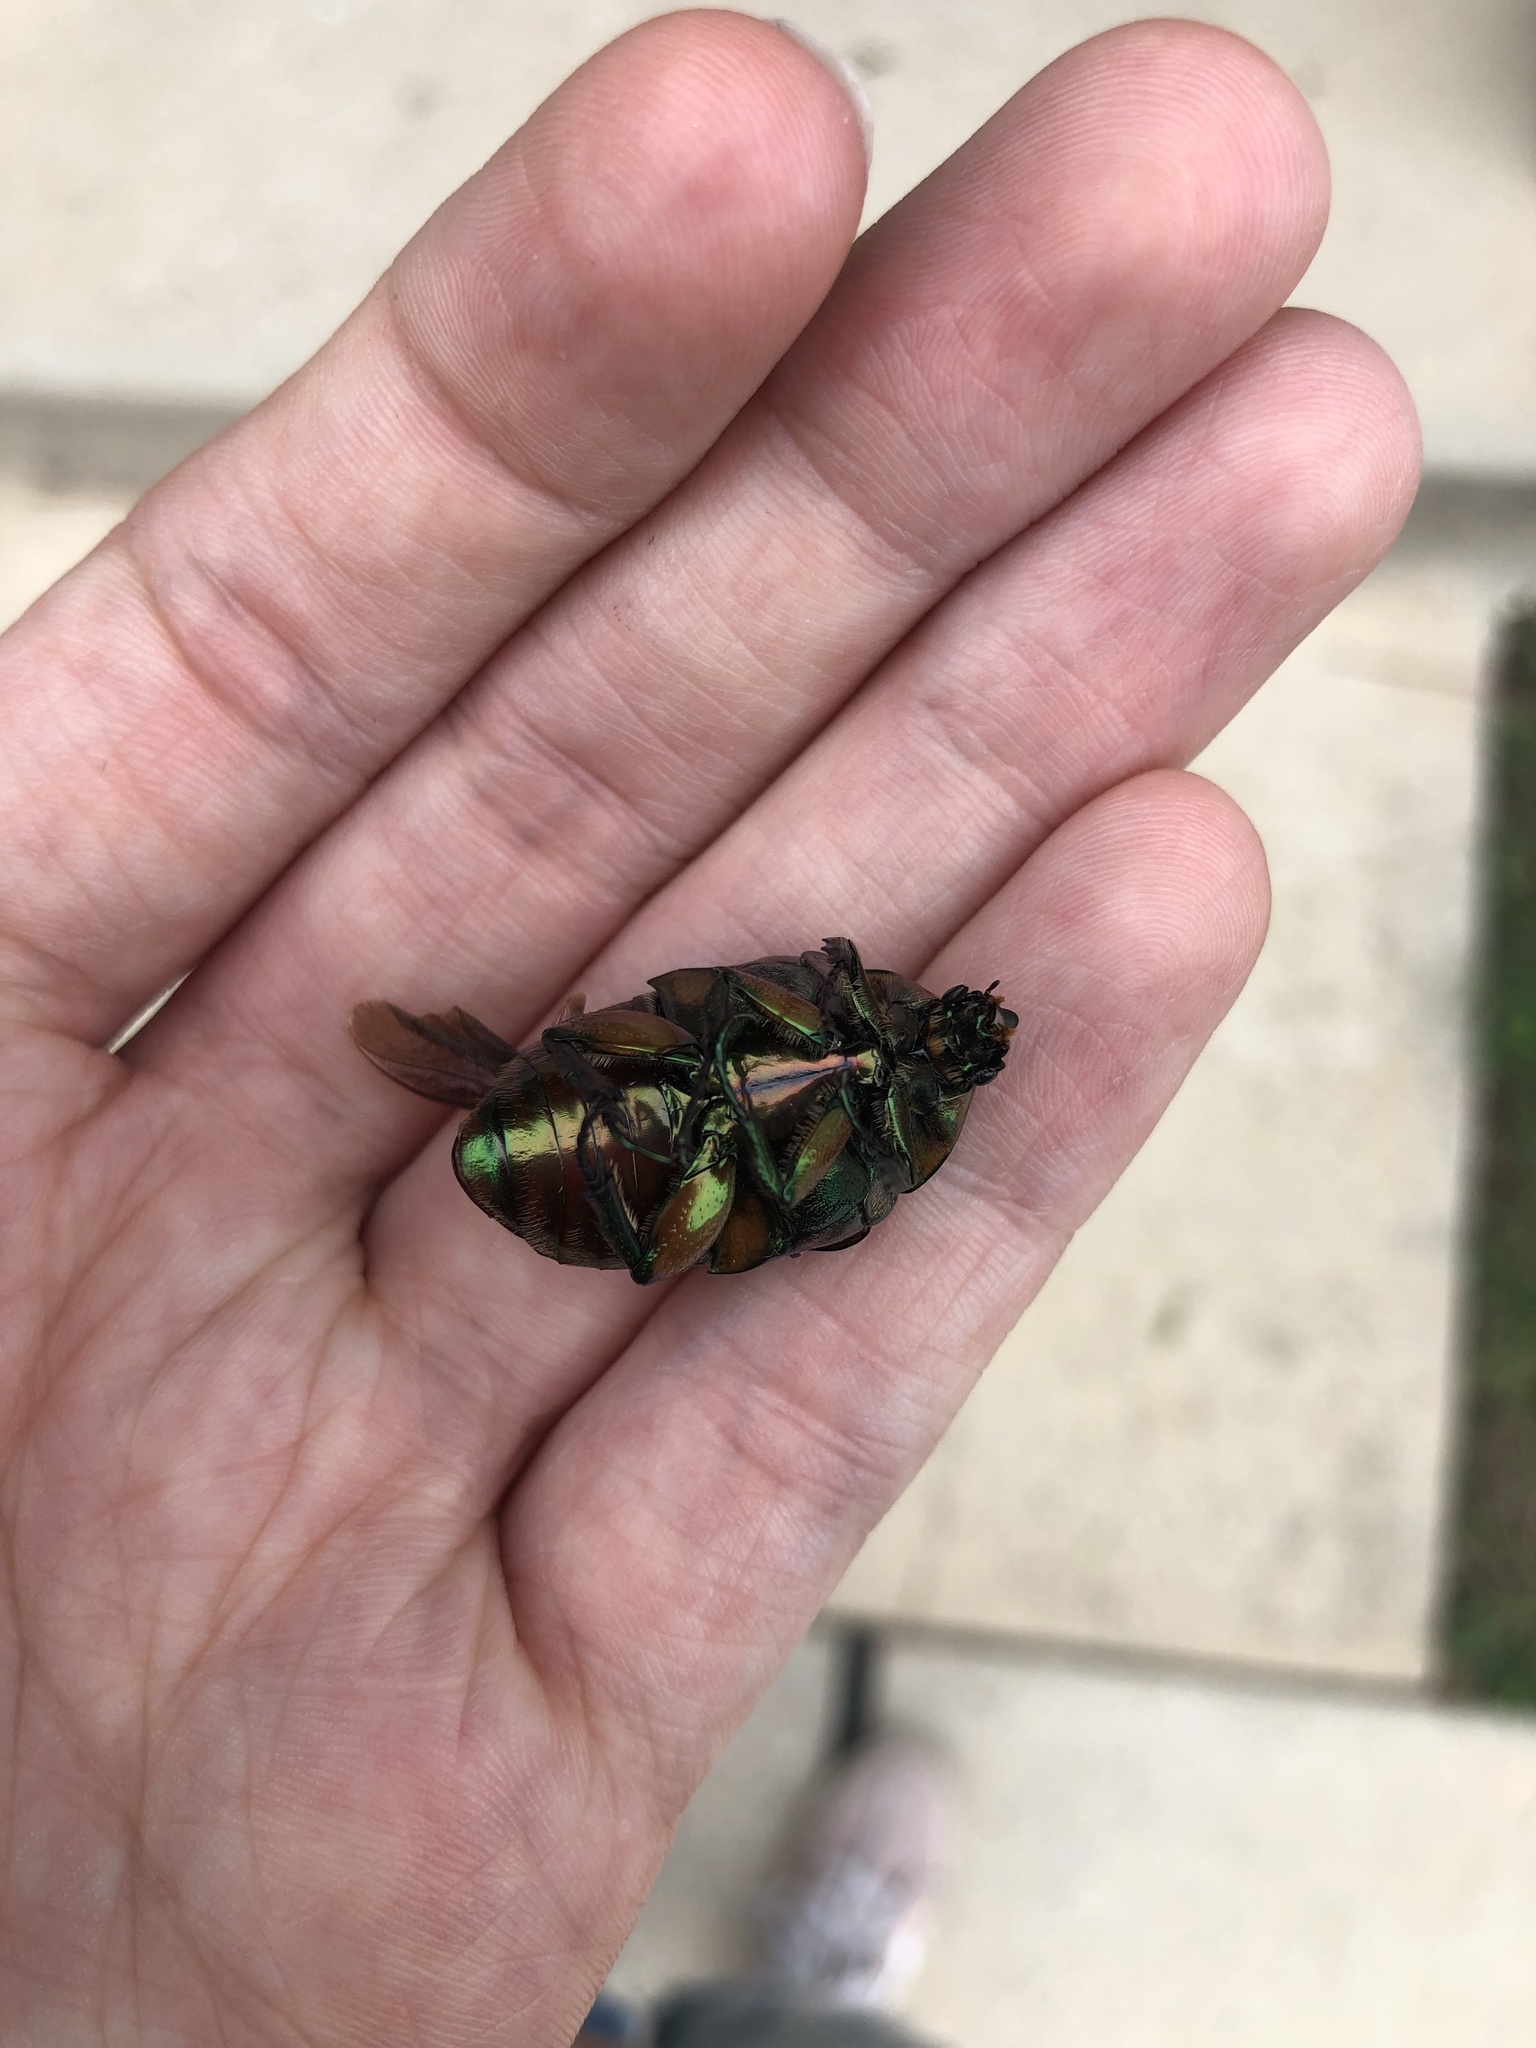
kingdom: Animalia
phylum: Arthropoda
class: Insecta
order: Coleoptera
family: Scarabaeidae
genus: Cotinis
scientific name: Cotinis nitida
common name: Common green june beetle
